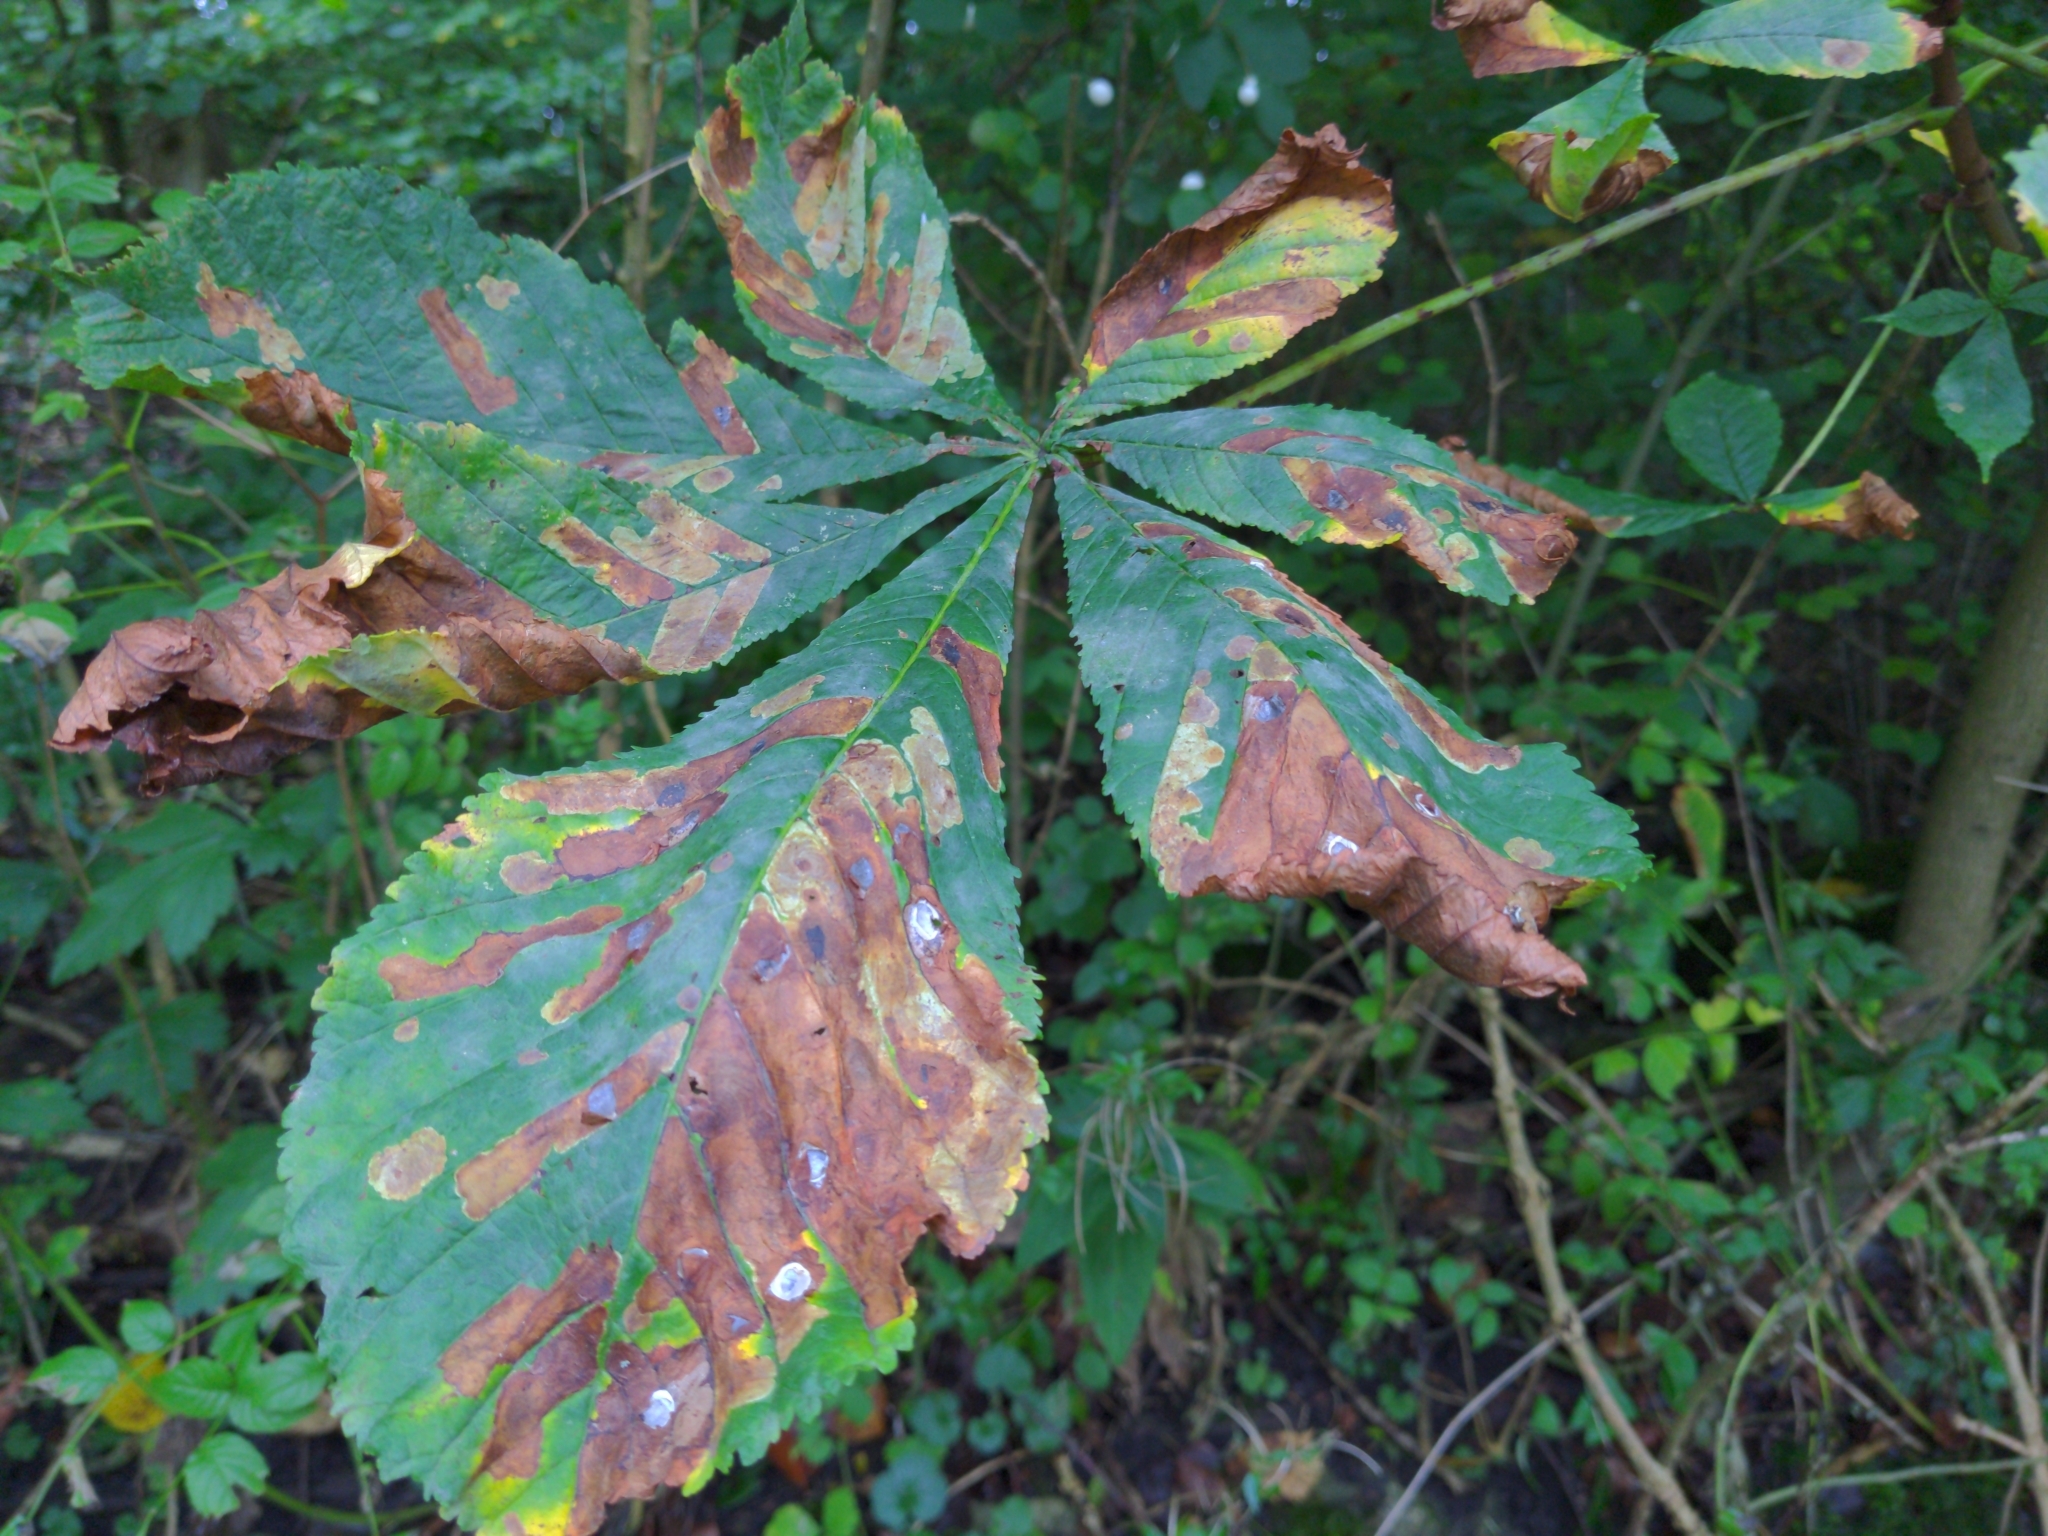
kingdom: Animalia
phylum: Arthropoda
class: Insecta
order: Lepidoptera
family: Gracillariidae
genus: Cameraria
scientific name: Cameraria ohridella
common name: Horse-chestnut leaf-miner
